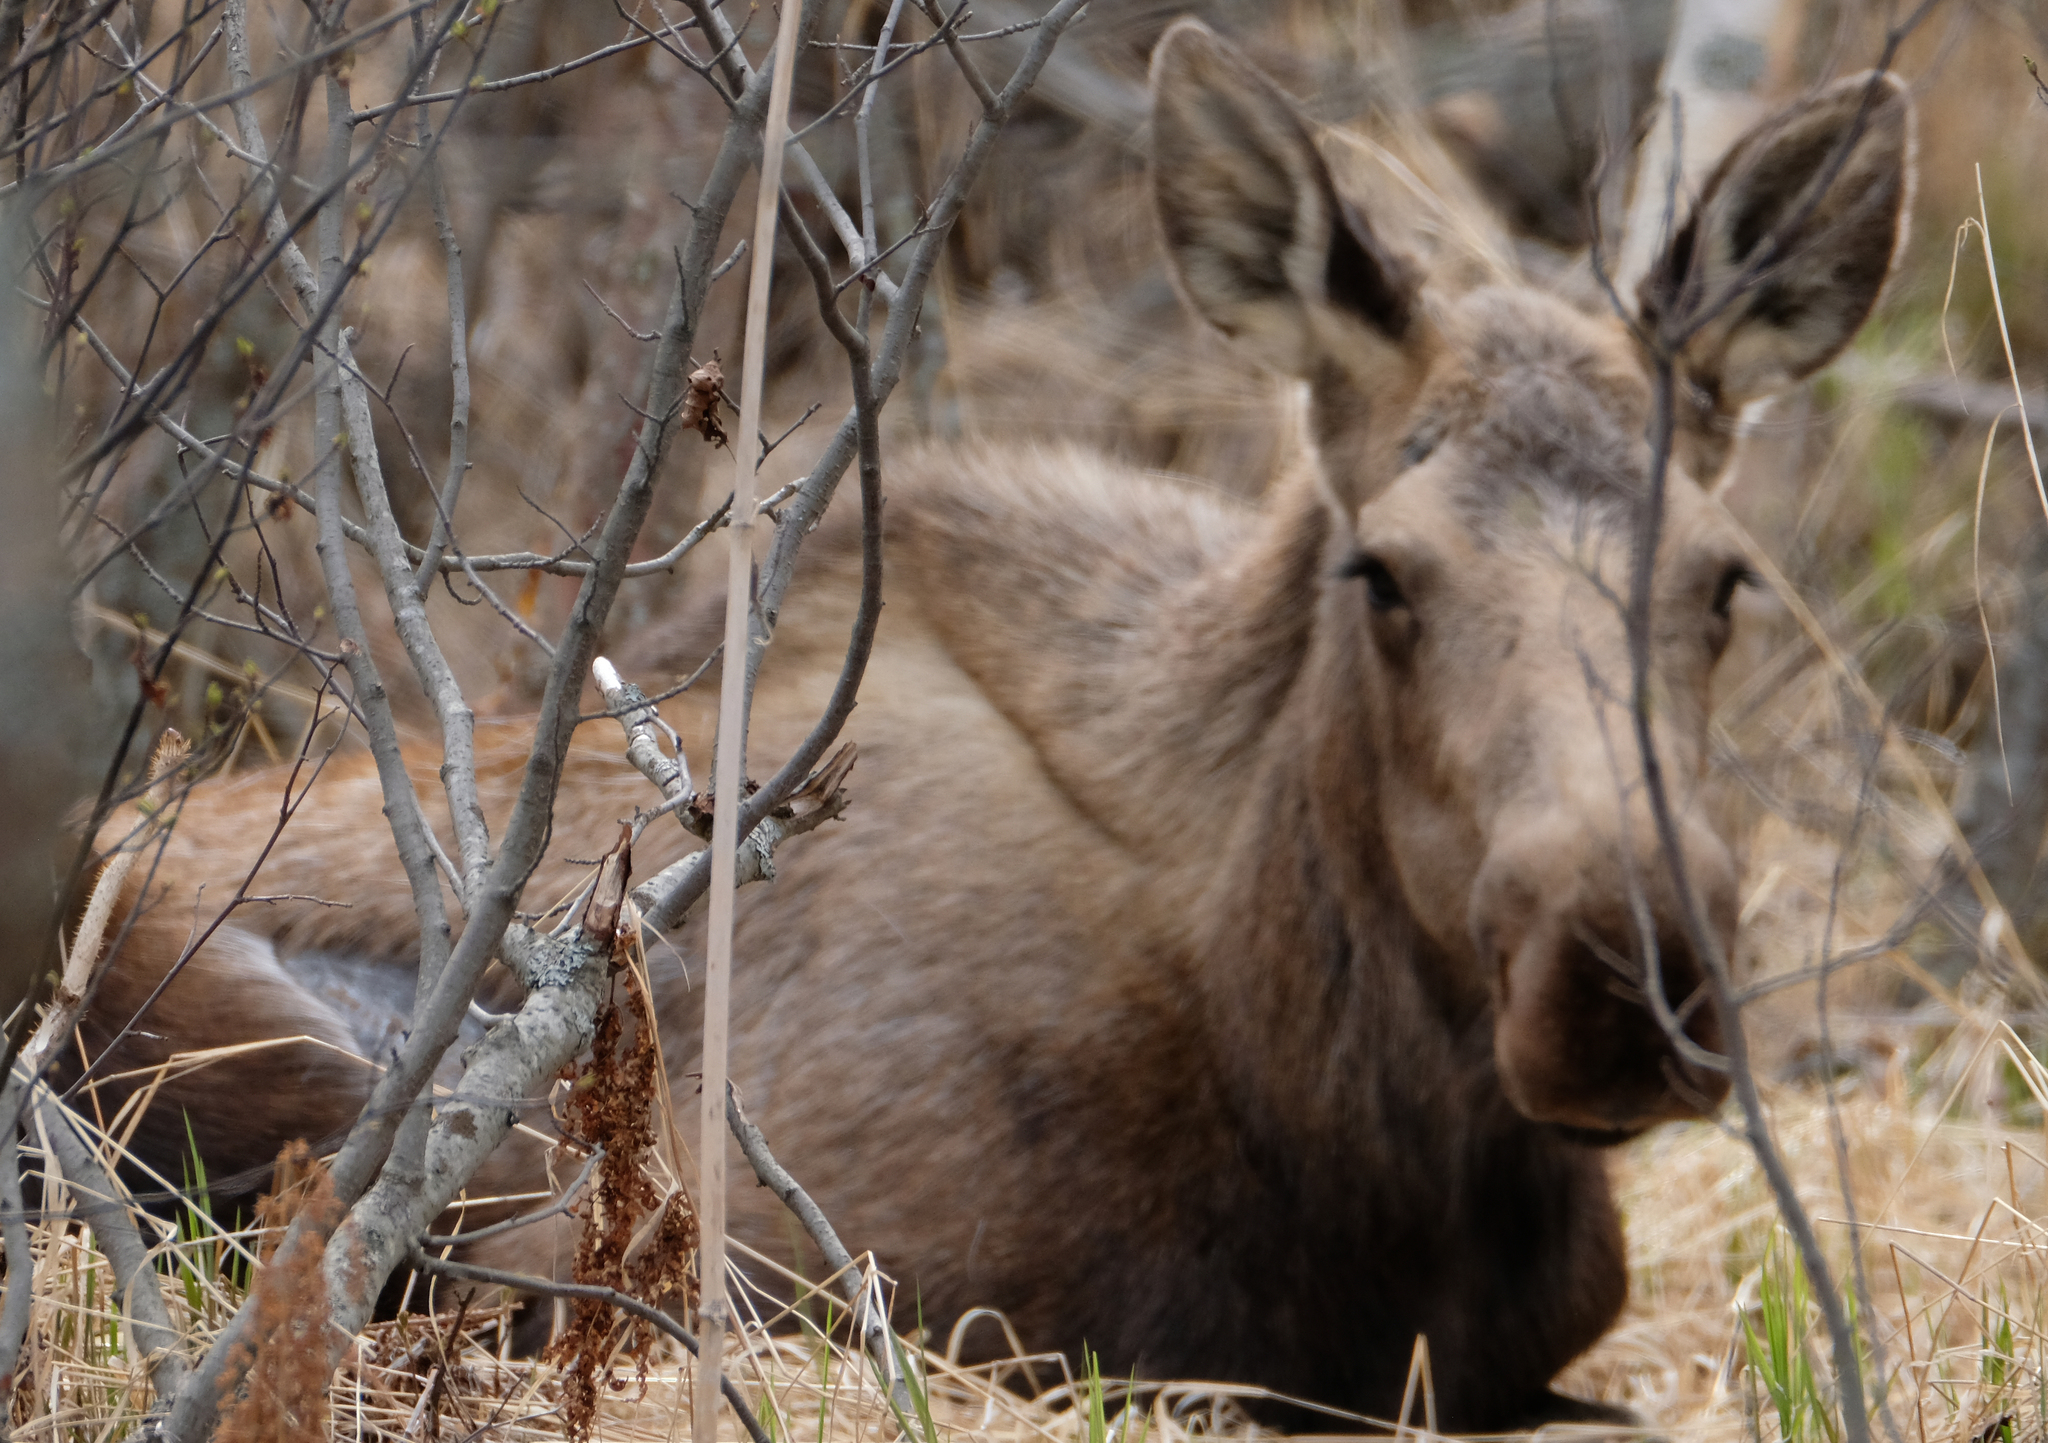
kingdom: Animalia
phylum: Chordata
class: Mammalia
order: Artiodactyla
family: Cervidae
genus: Alces
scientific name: Alces alces
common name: Moose
